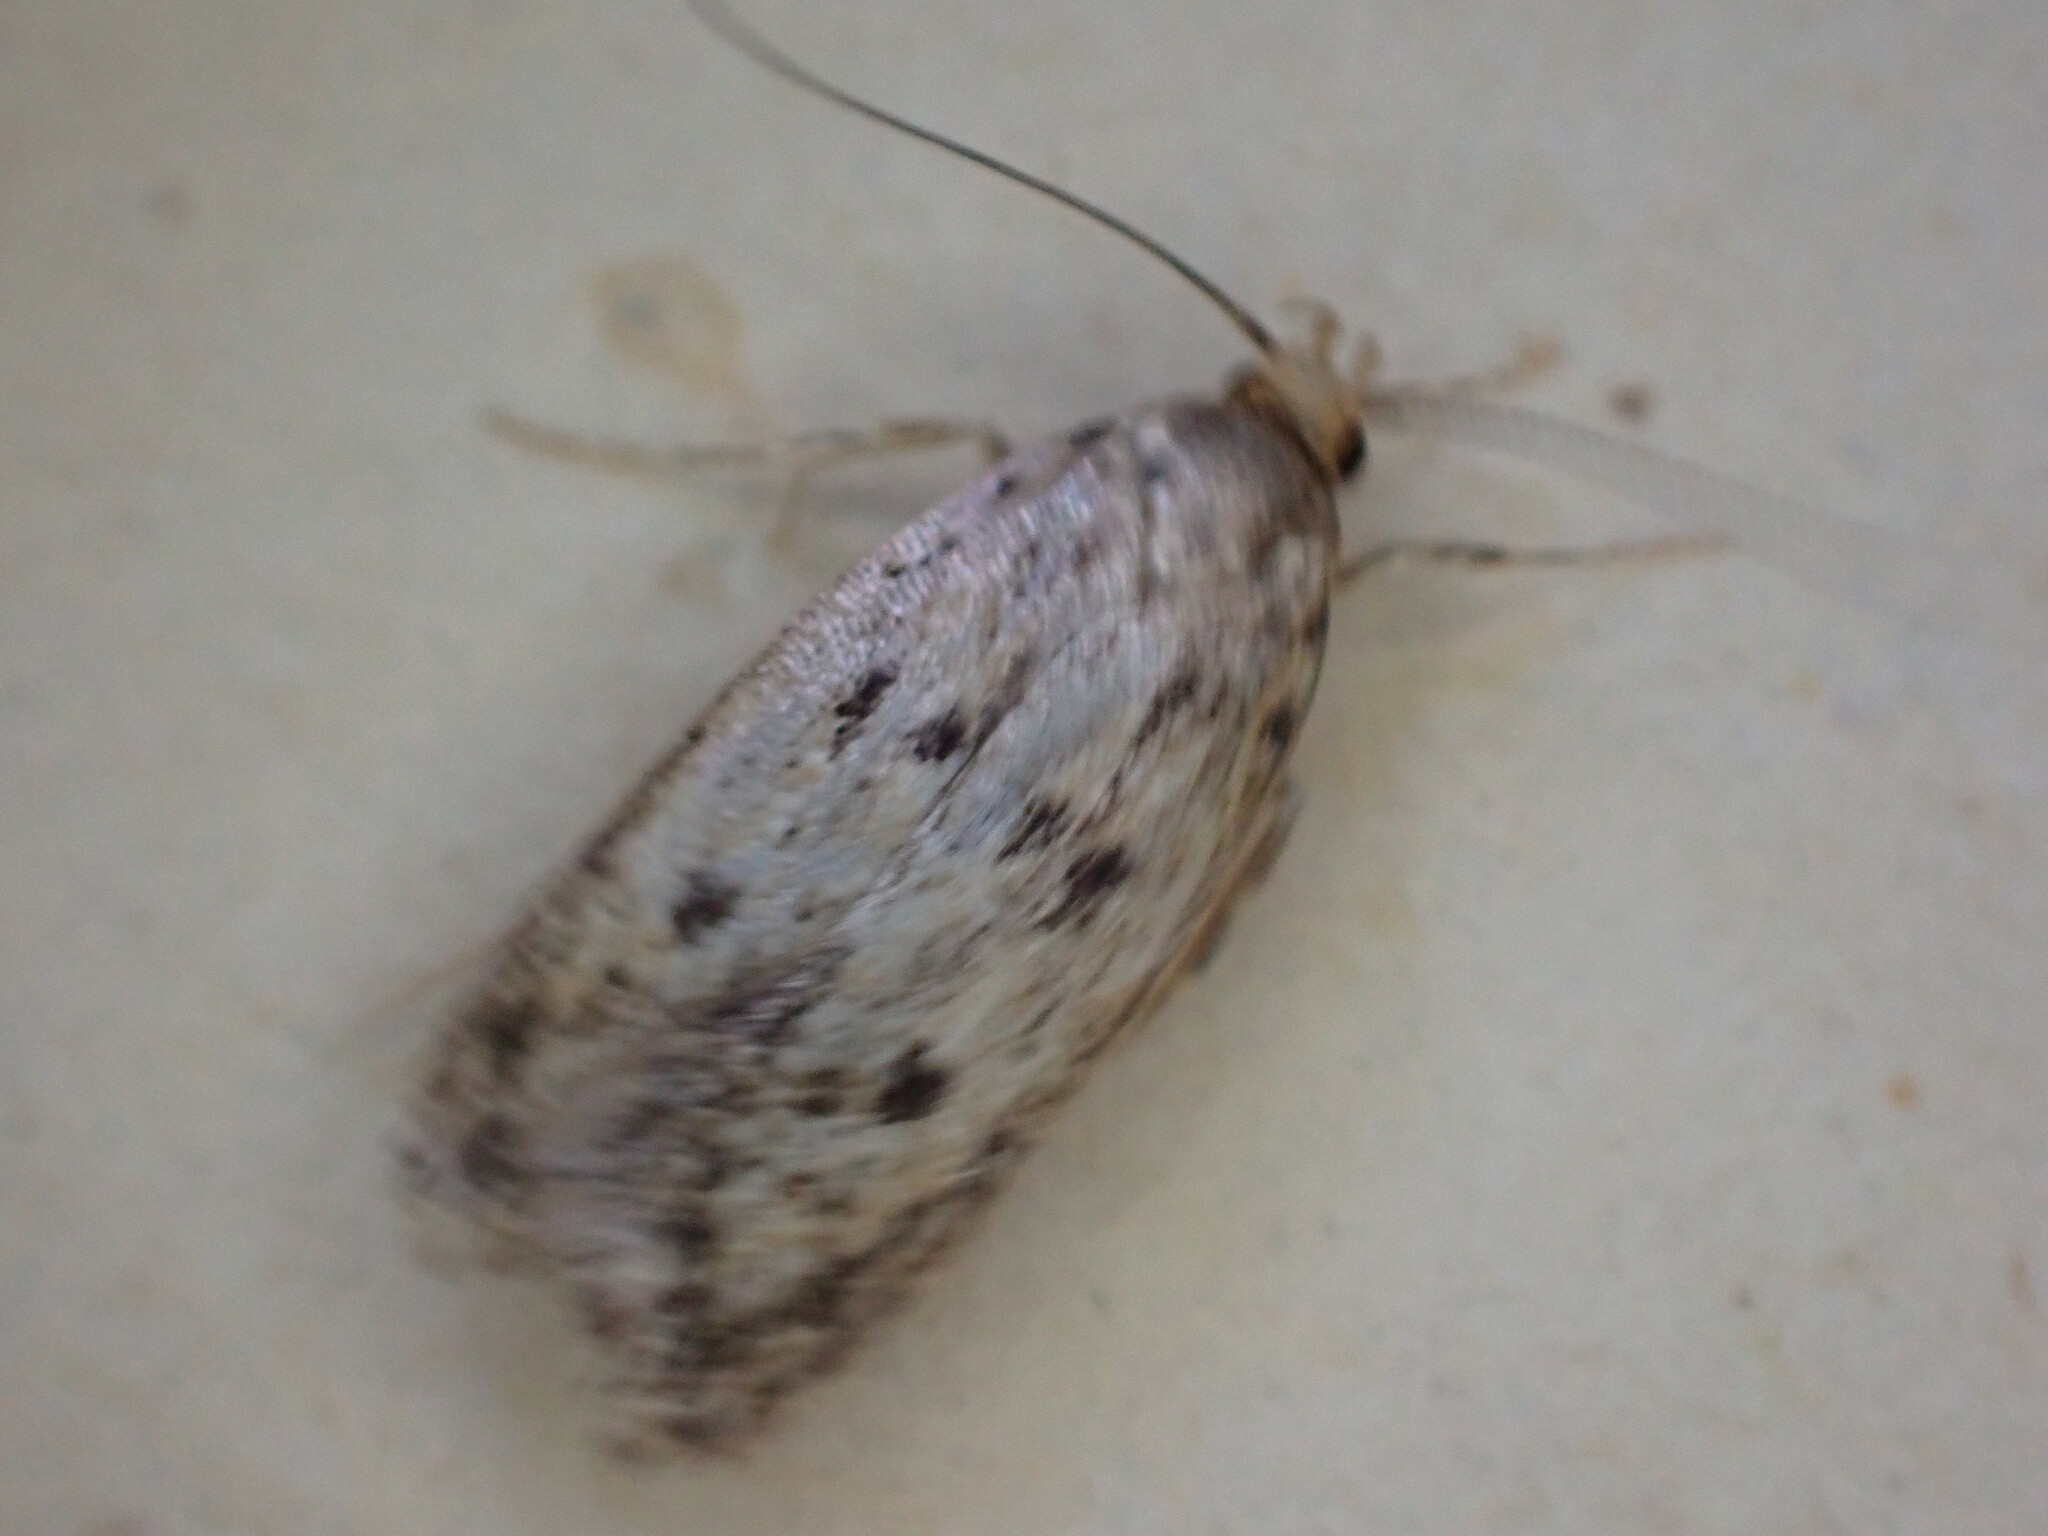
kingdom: Animalia
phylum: Arthropoda
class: Insecta
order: Lepidoptera
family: Oecophoridae
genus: Hofmannophila
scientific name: Hofmannophila pseudospretella
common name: Brown house moth
